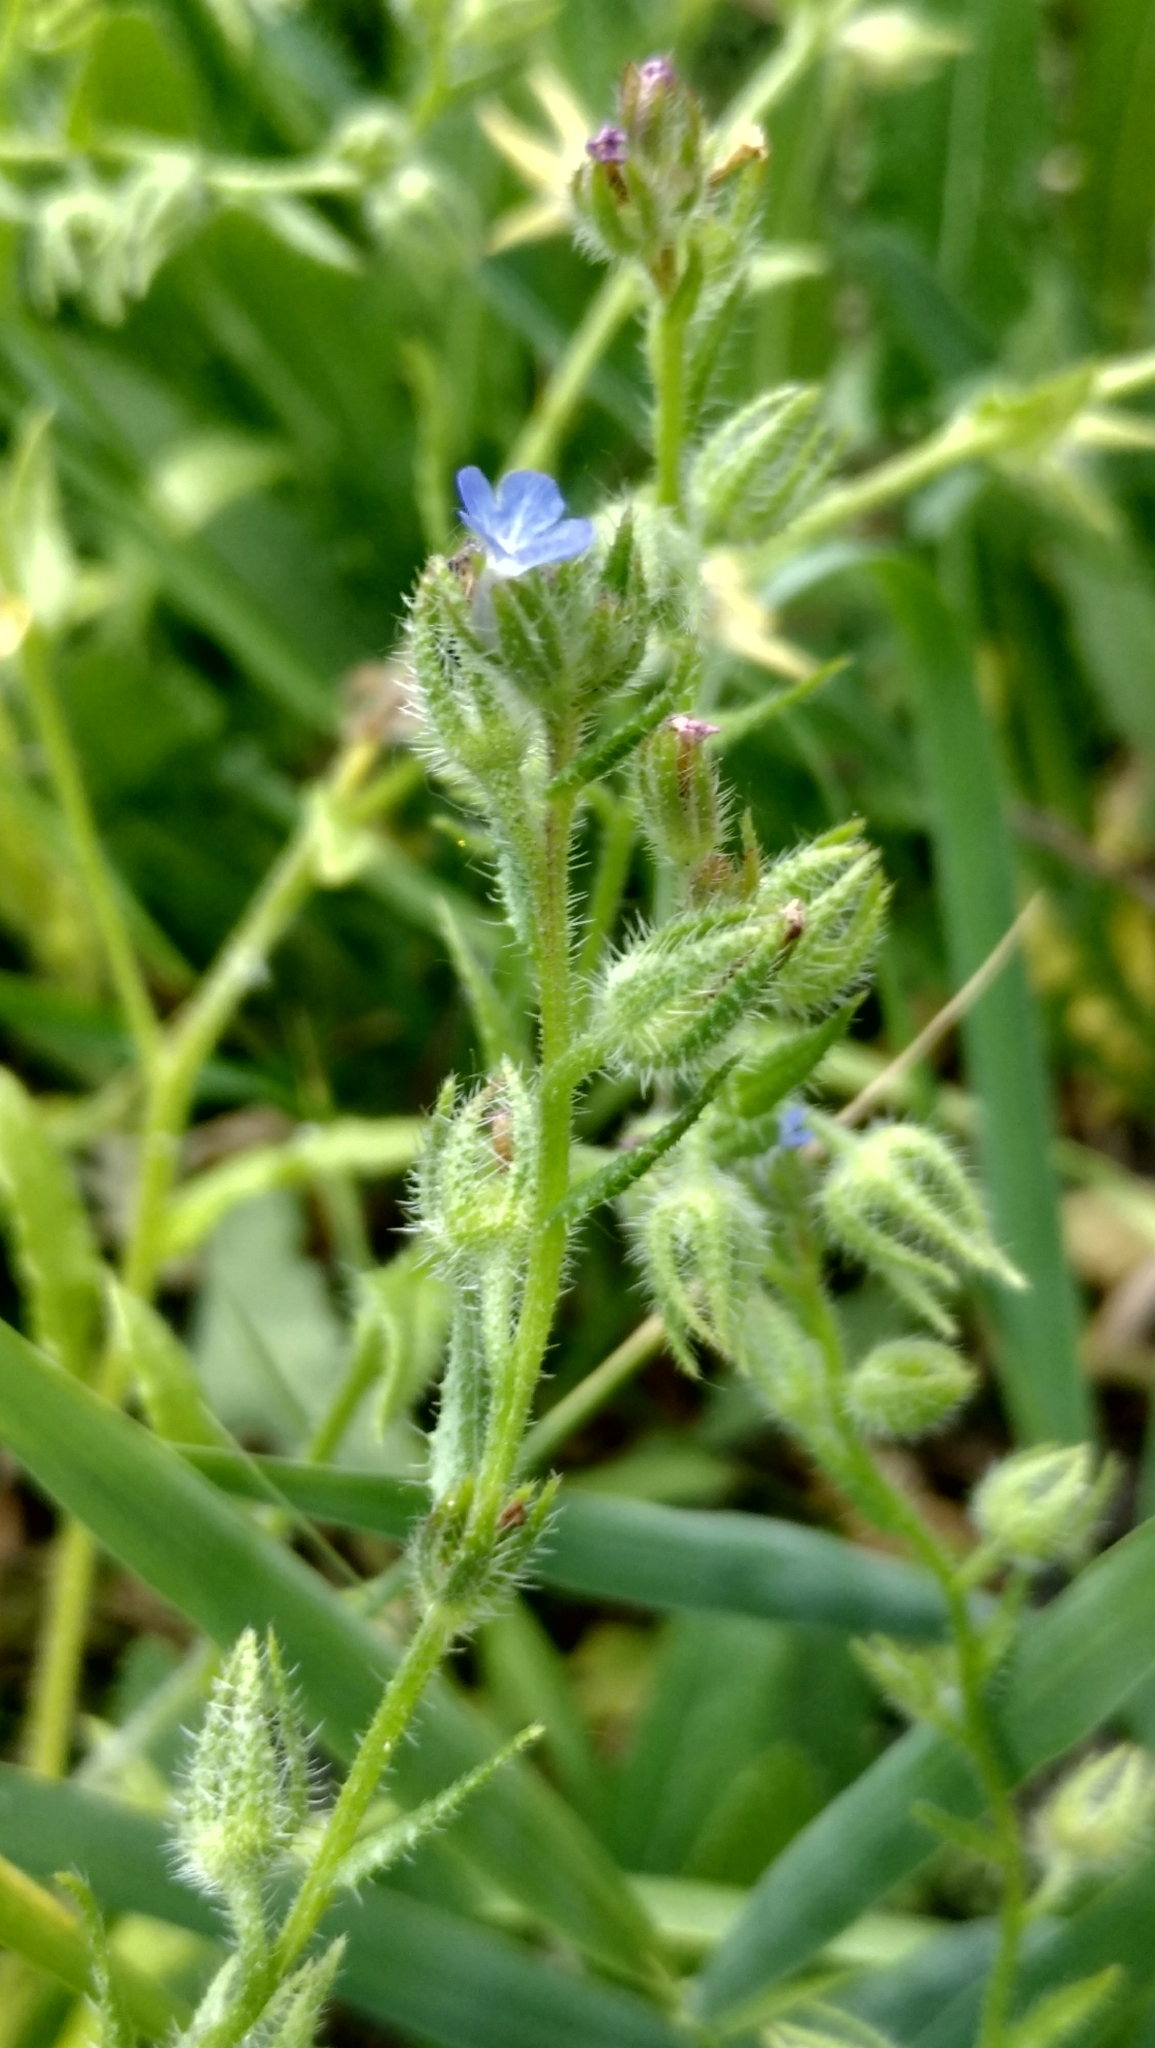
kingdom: Plantae
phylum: Tracheophyta
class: Magnoliopsida
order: Boraginales
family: Boraginaceae
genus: Lycopsis
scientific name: Lycopsis arvensis
